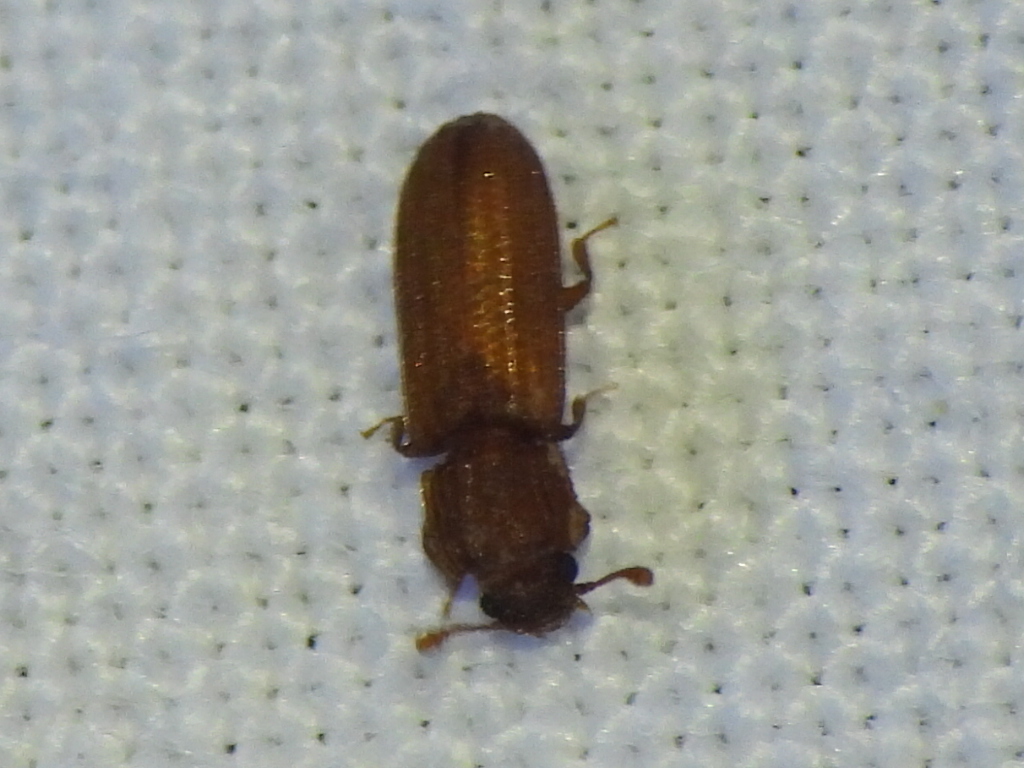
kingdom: Animalia
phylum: Arthropoda
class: Insecta
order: Coleoptera
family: Zopheridae
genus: Bitoma
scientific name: Bitoma sulcata
